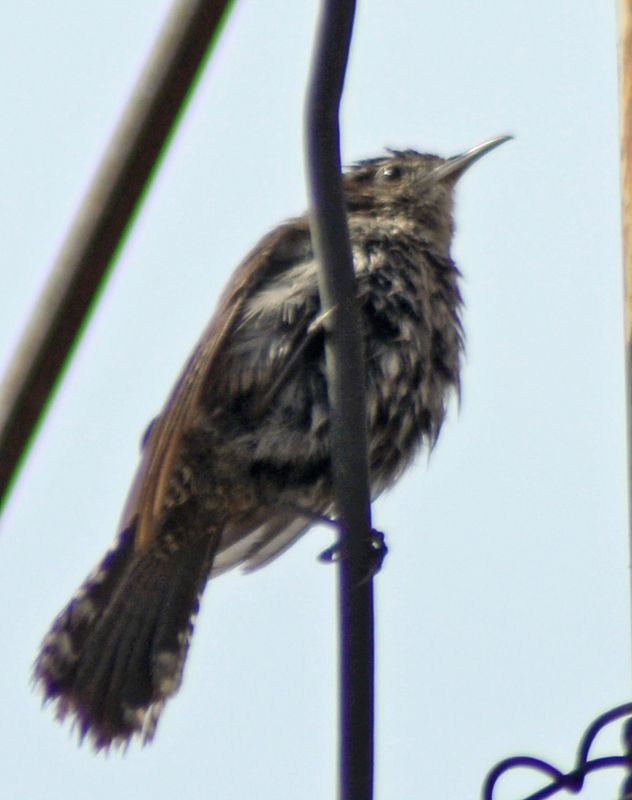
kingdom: Animalia
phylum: Chordata
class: Aves
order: Passeriformes
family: Troglodytidae
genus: Thryomanes
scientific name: Thryomanes bewickii
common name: Bewick's wren
